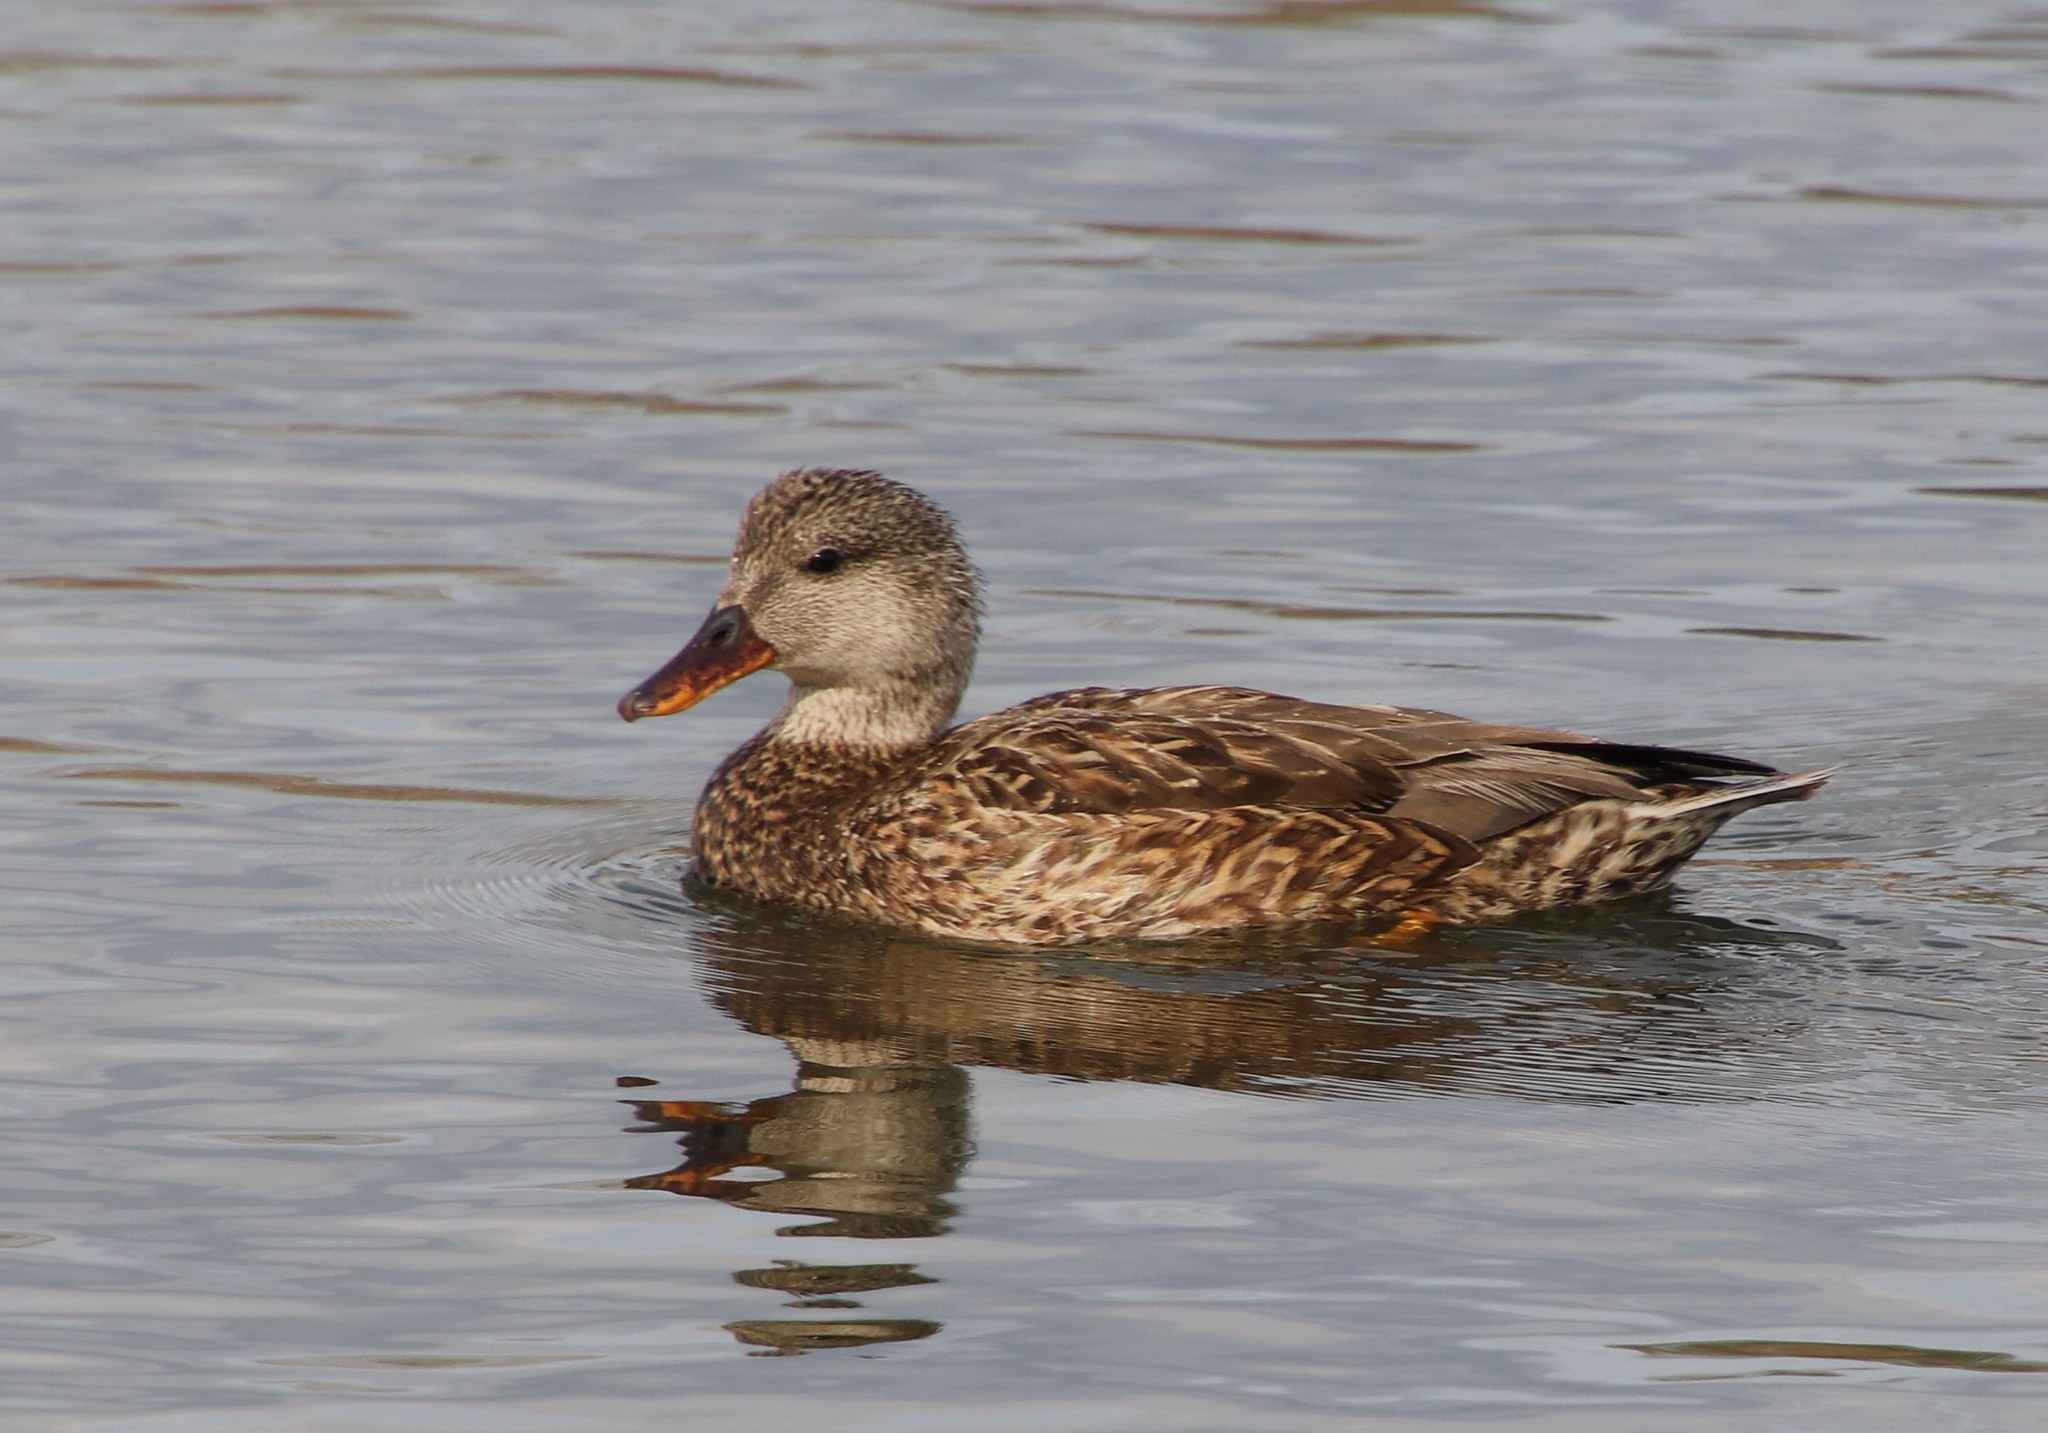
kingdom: Animalia
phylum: Chordata
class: Aves
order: Anseriformes
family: Anatidae
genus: Mareca
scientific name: Mareca strepera
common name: Gadwall
